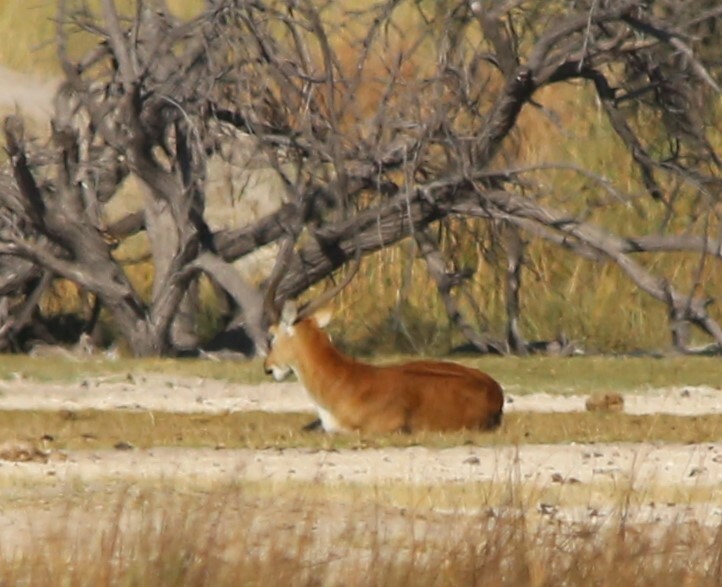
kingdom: Animalia
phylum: Chordata
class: Mammalia
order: Artiodactyla
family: Bovidae
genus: Kobus
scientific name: Kobus leche
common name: Lechwe
